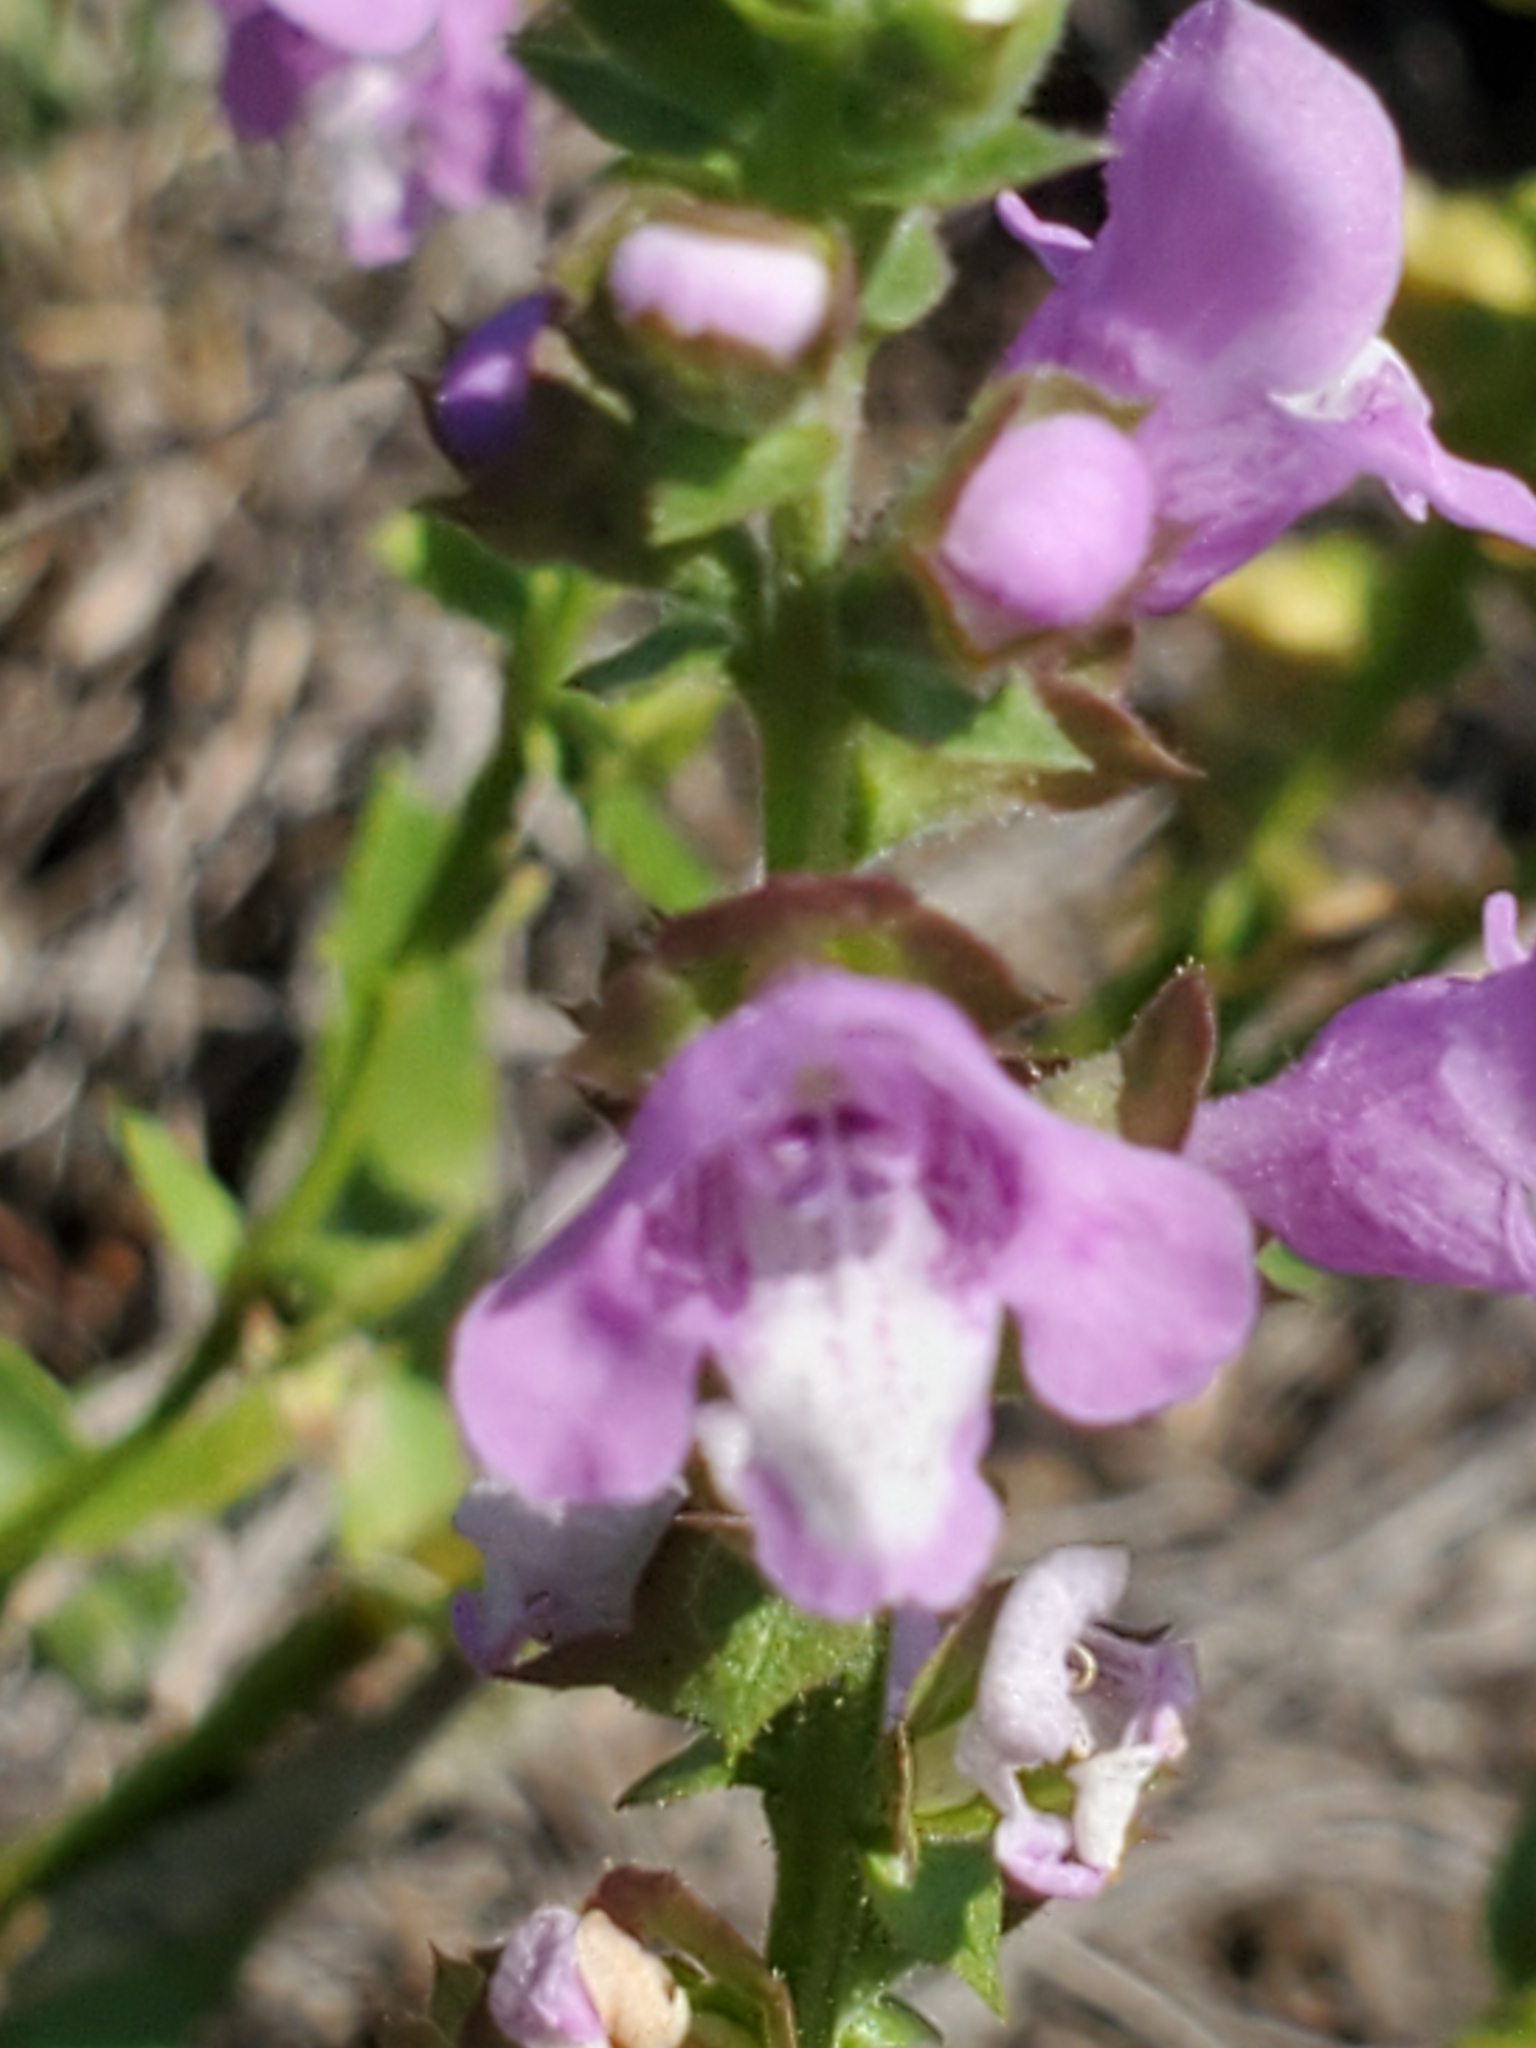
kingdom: Plantae
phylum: Tracheophyta
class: Magnoliopsida
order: Lamiales
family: Lamiaceae
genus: Warnockia
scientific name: Warnockia scutellarioides
